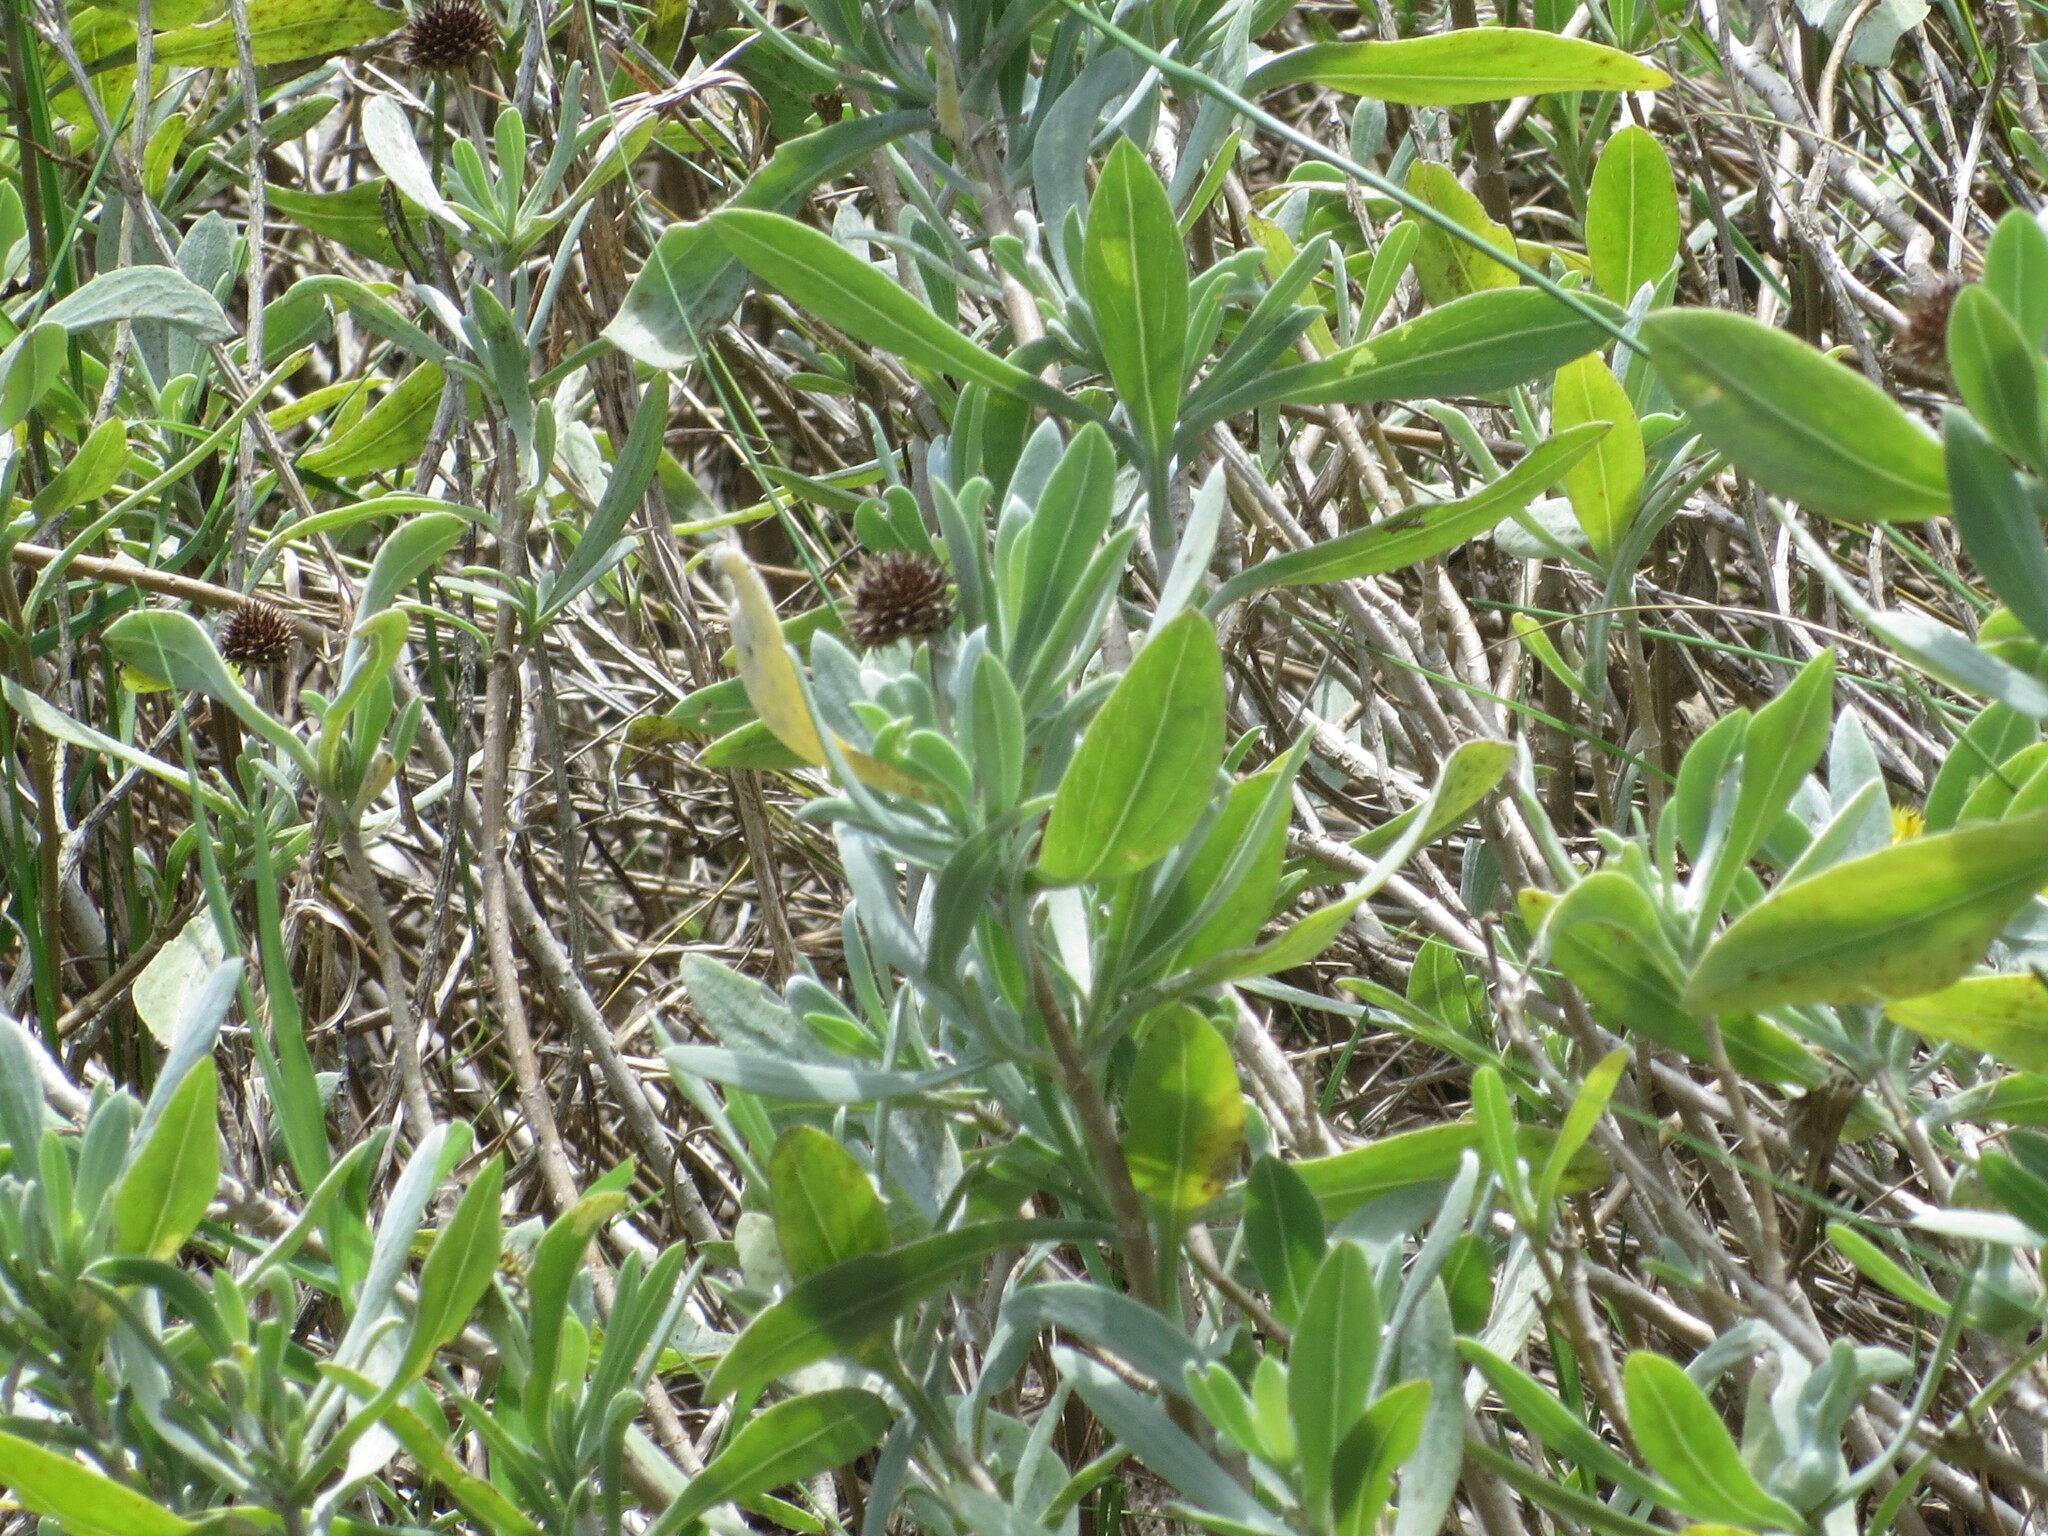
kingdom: Plantae
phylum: Tracheophyta
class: Magnoliopsida
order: Asterales
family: Asteraceae
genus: Borrichia
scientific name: Borrichia frutescens
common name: Sea oxeye
